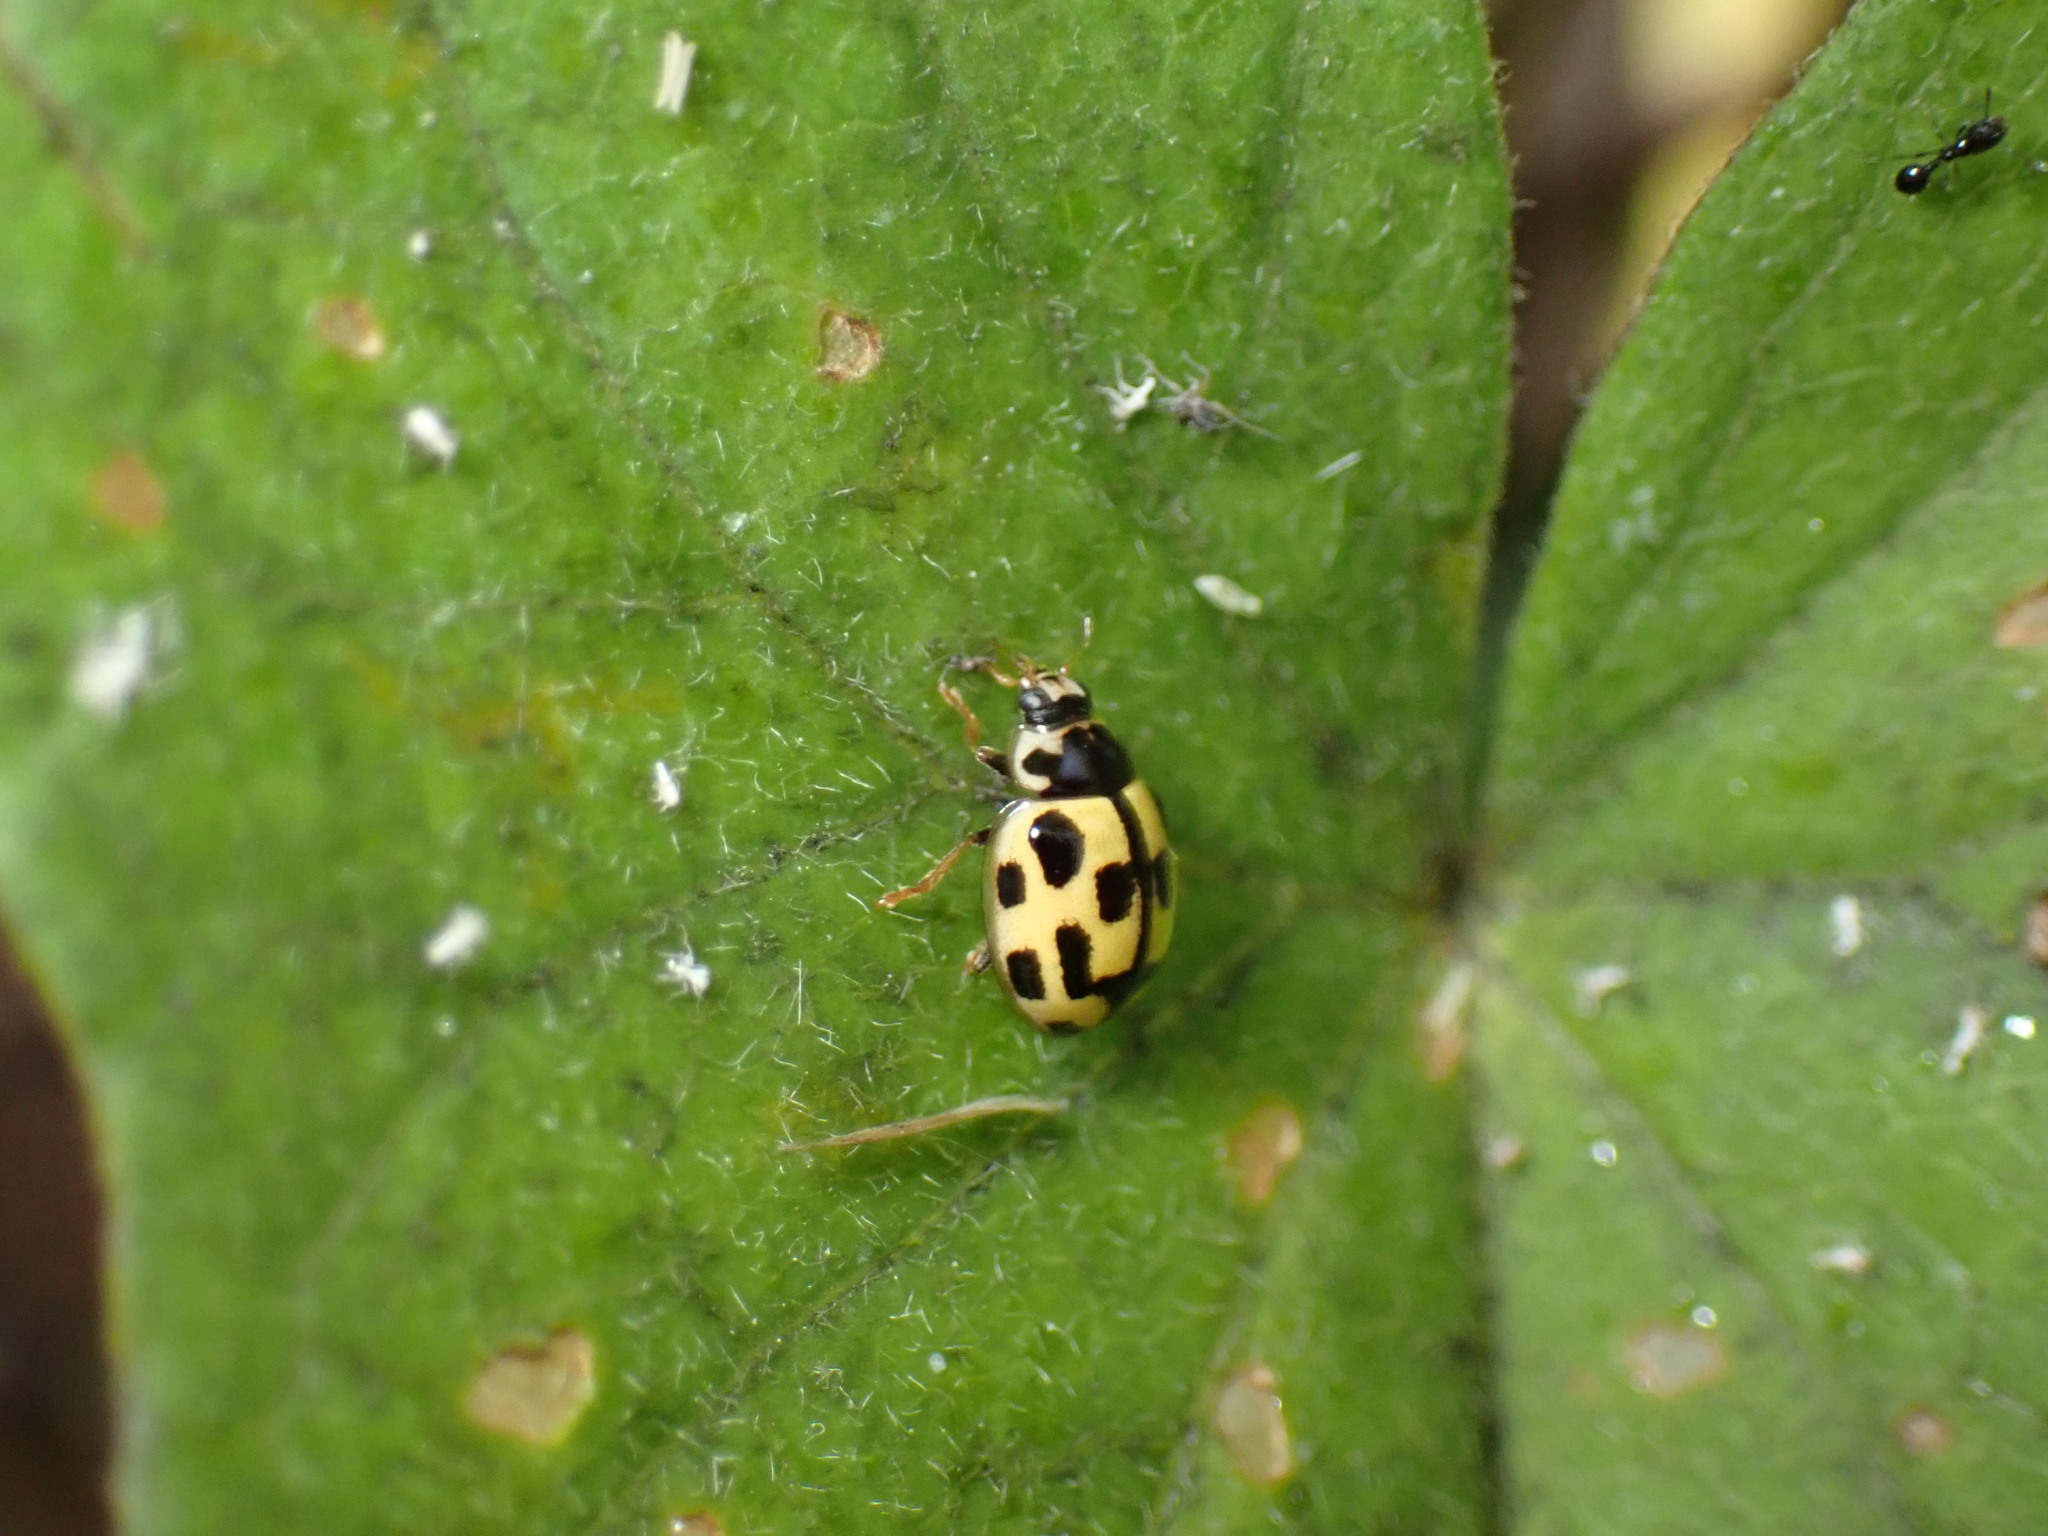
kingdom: Animalia
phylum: Arthropoda
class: Insecta
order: Coleoptera
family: Coccinellidae
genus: Propylaea
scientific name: Propylaea quatuordecimpunctata
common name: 14-spotted ladybird beetle
